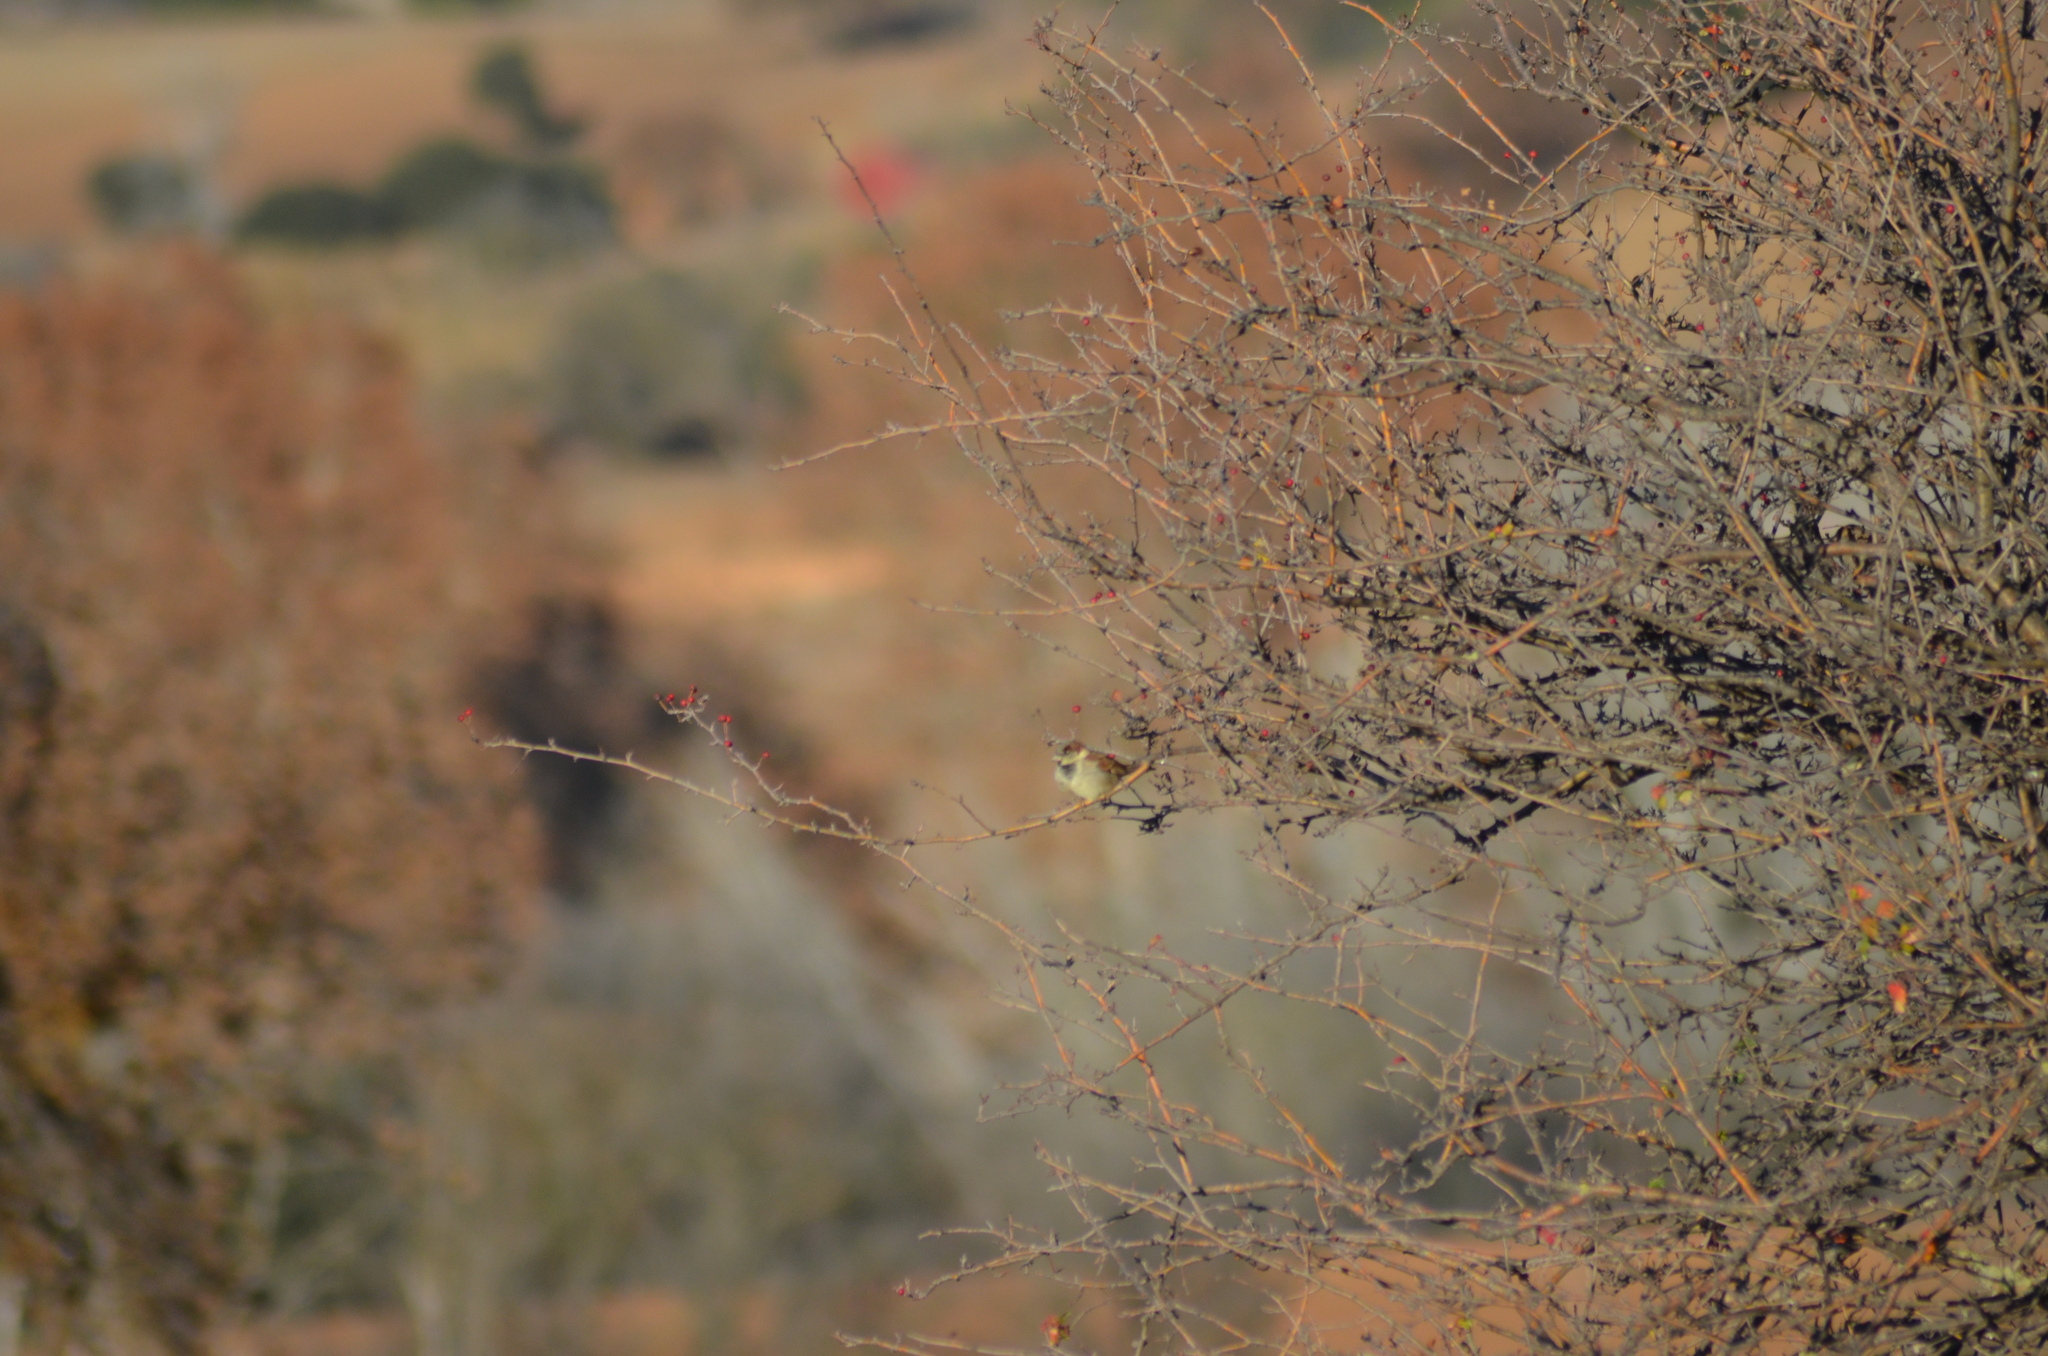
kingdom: Animalia
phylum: Chordata
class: Aves
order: Passeriformes
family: Passeridae
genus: Passer
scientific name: Passer domesticus
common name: House sparrow
